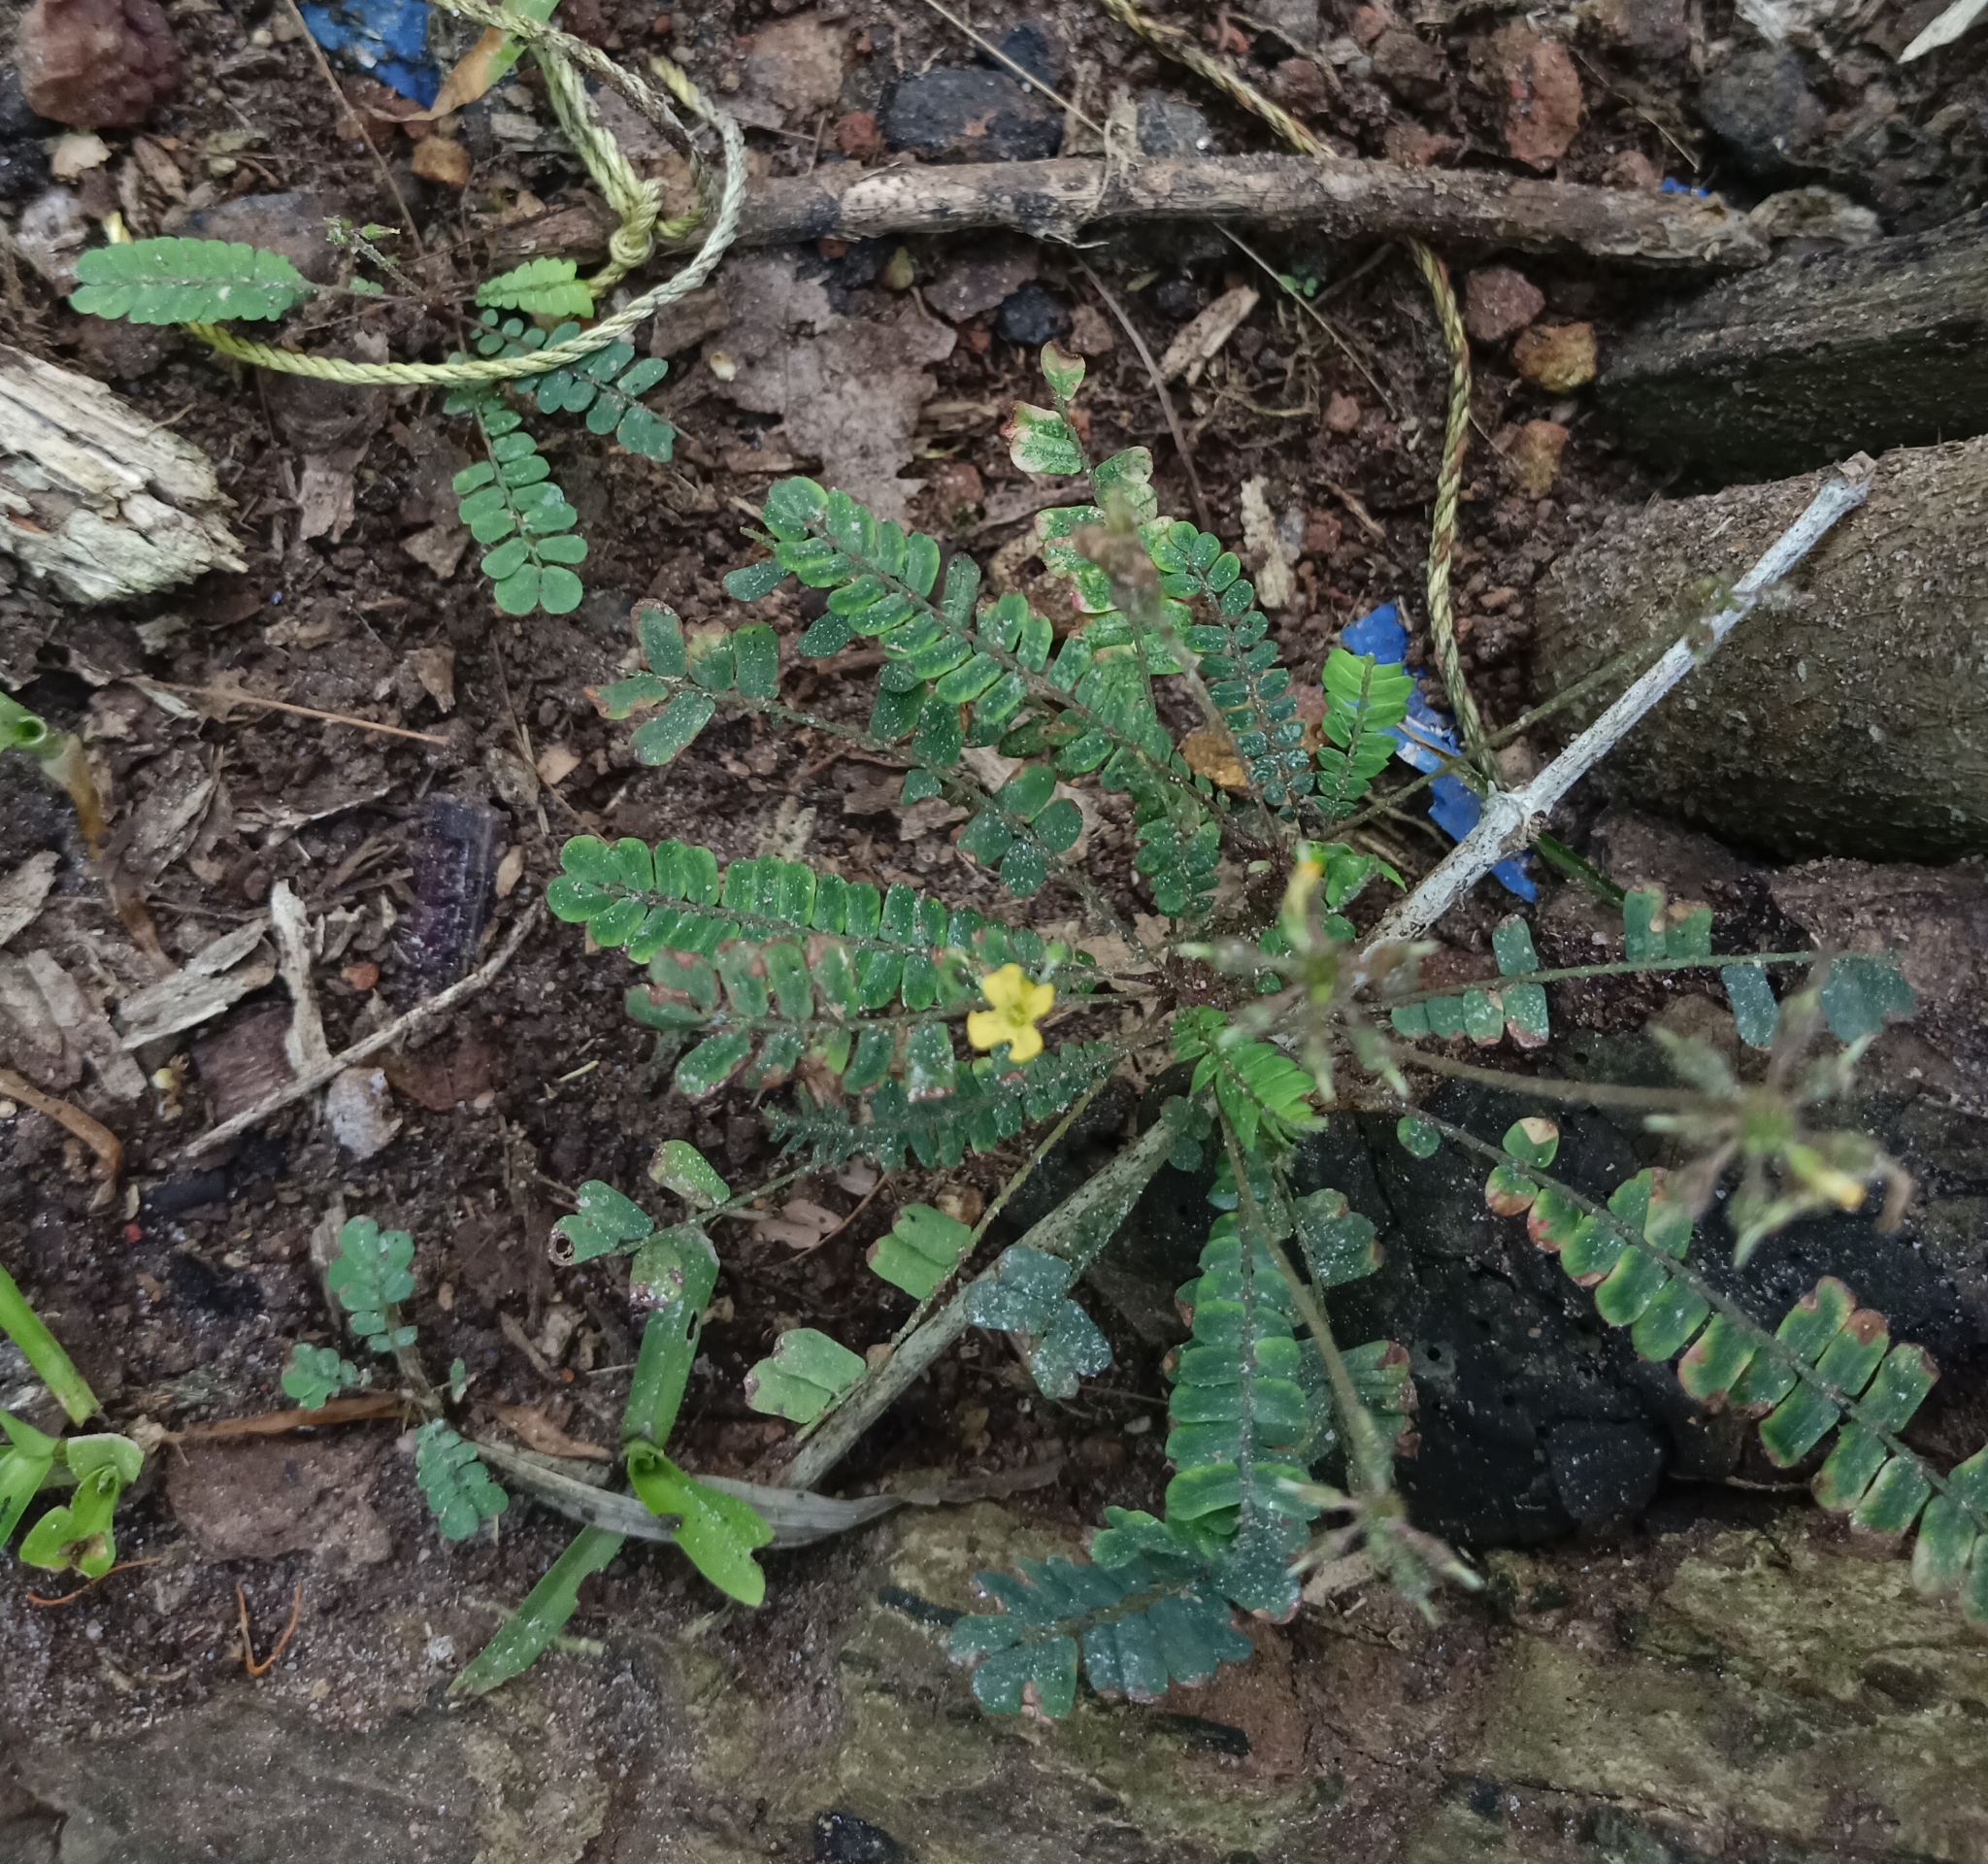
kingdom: Plantae
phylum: Tracheophyta
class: Magnoliopsida
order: Oxalidales
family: Oxalidaceae
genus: Biophytum
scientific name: Biophytum sensitivum
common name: Lifeplant
